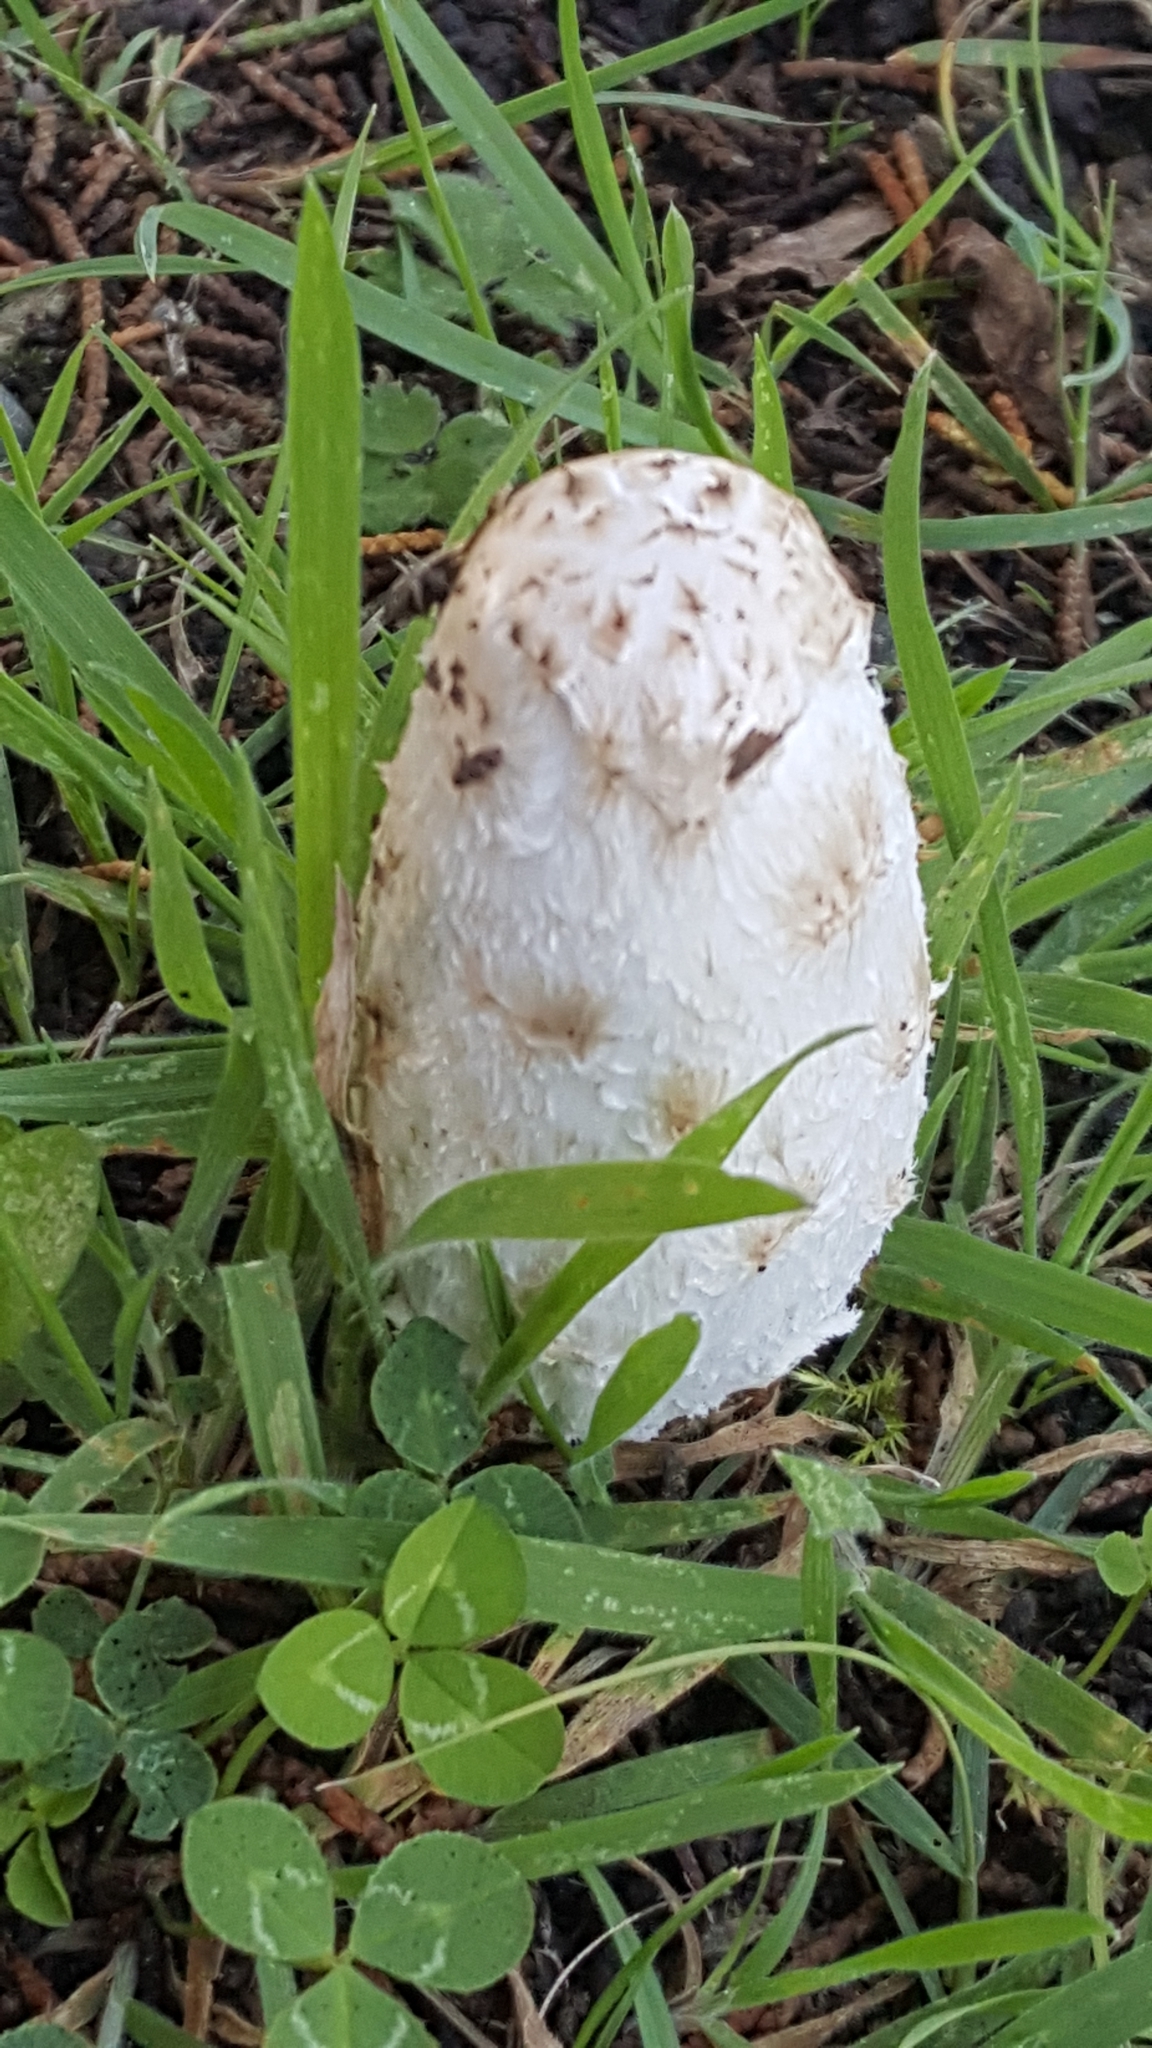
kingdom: Fungi
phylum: Basidiomycota
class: Agaricomycetes
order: Agaricales
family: Agaricaceae
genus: Coprinus
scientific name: Coprinus comatus
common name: Lawyer's wig
